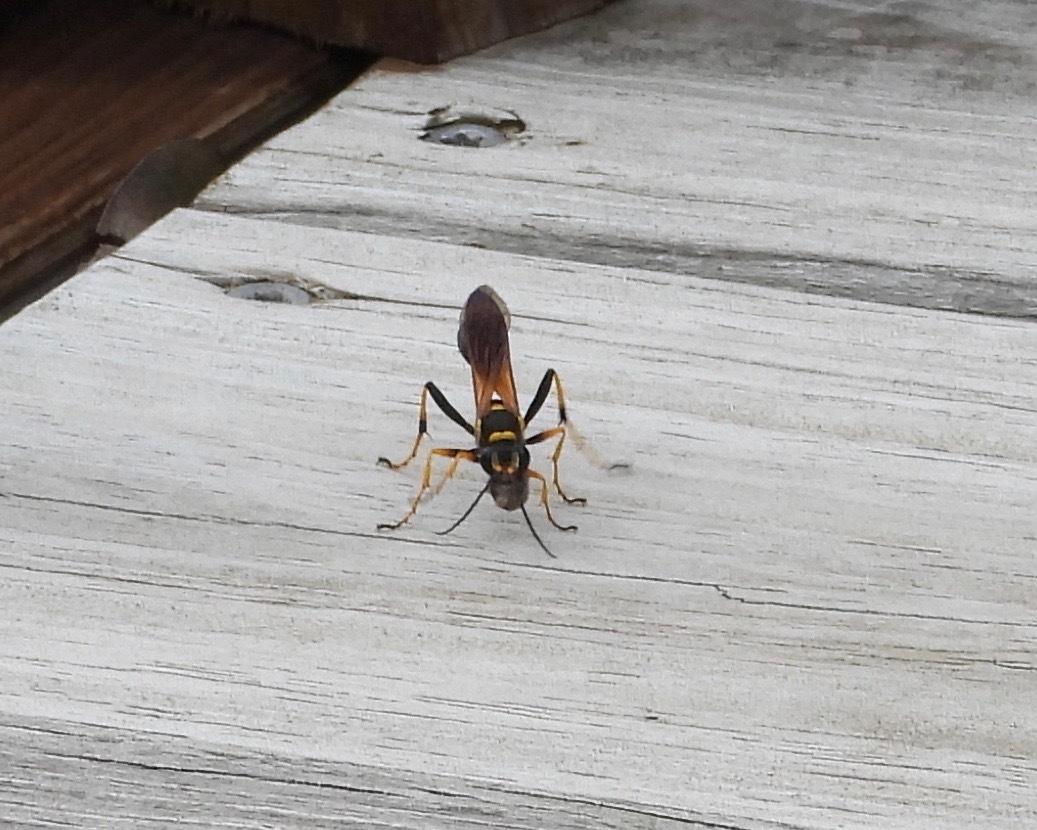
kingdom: Animalia
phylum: Arthropoda
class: Insecta
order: Hymenoptera
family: Sphecidae
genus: Sceliphron
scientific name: Sceliphron caementarium
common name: Mud dauber
